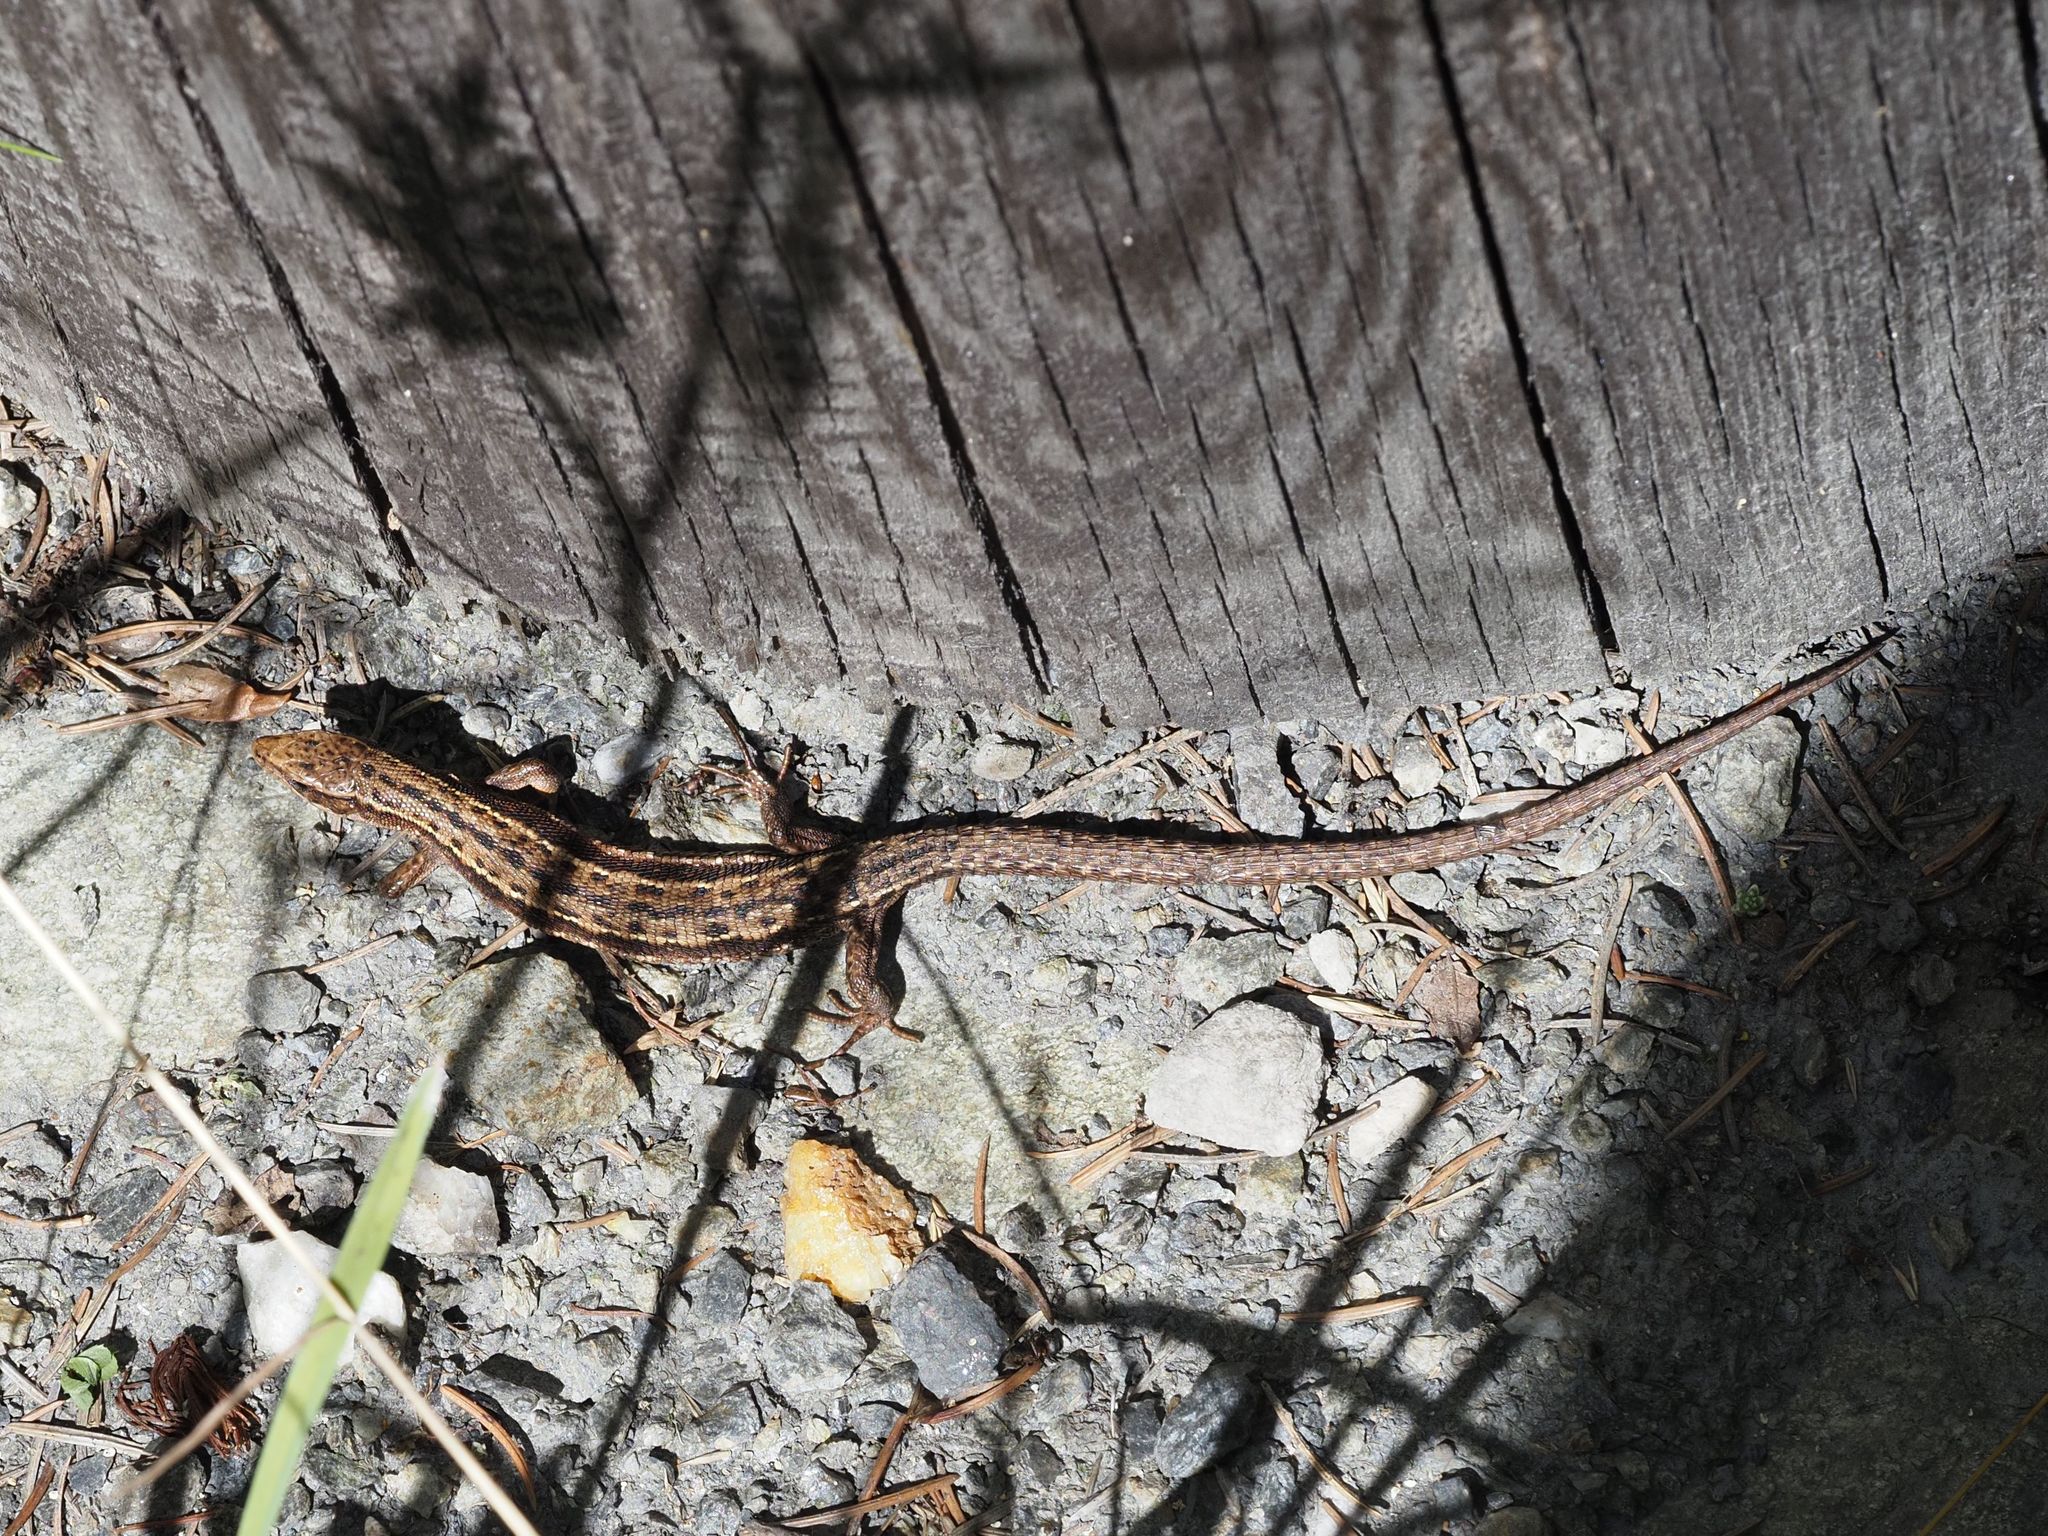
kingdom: Animalia
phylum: Chordata
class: Squamata
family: Lacertidae
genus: Zootoca
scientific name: Zootoca vivipara
